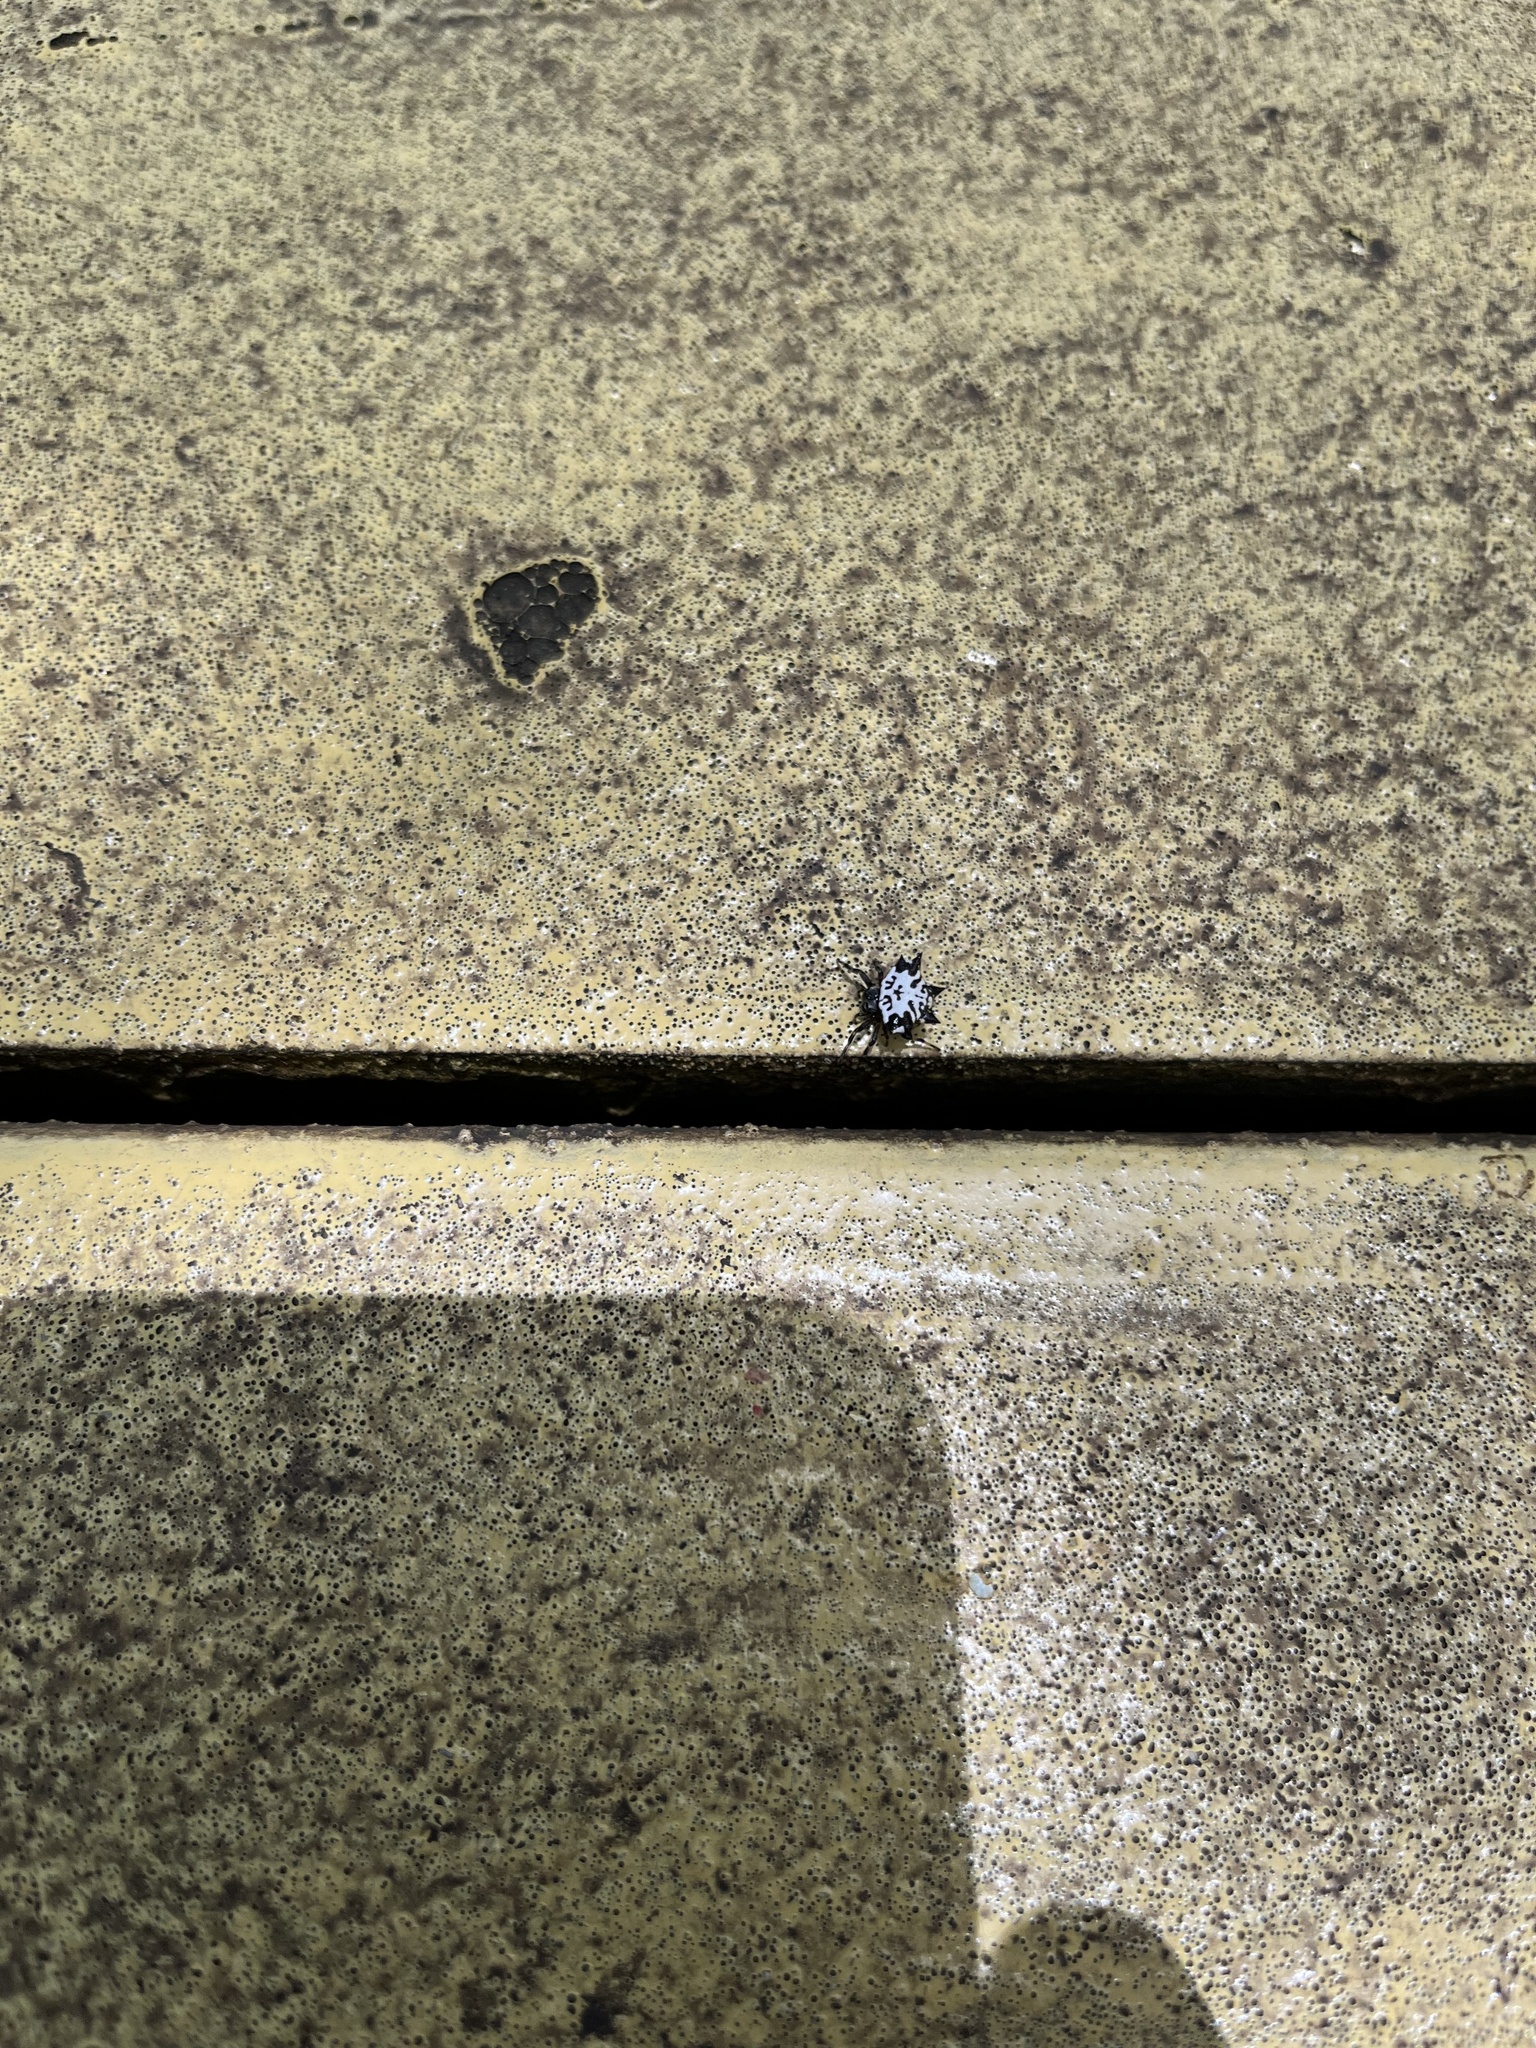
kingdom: Animalia
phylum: Arthropoda
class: Arachnida
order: Araneae
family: Araneidae
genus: Gasteracantha
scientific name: Gasteracantha kuhli
